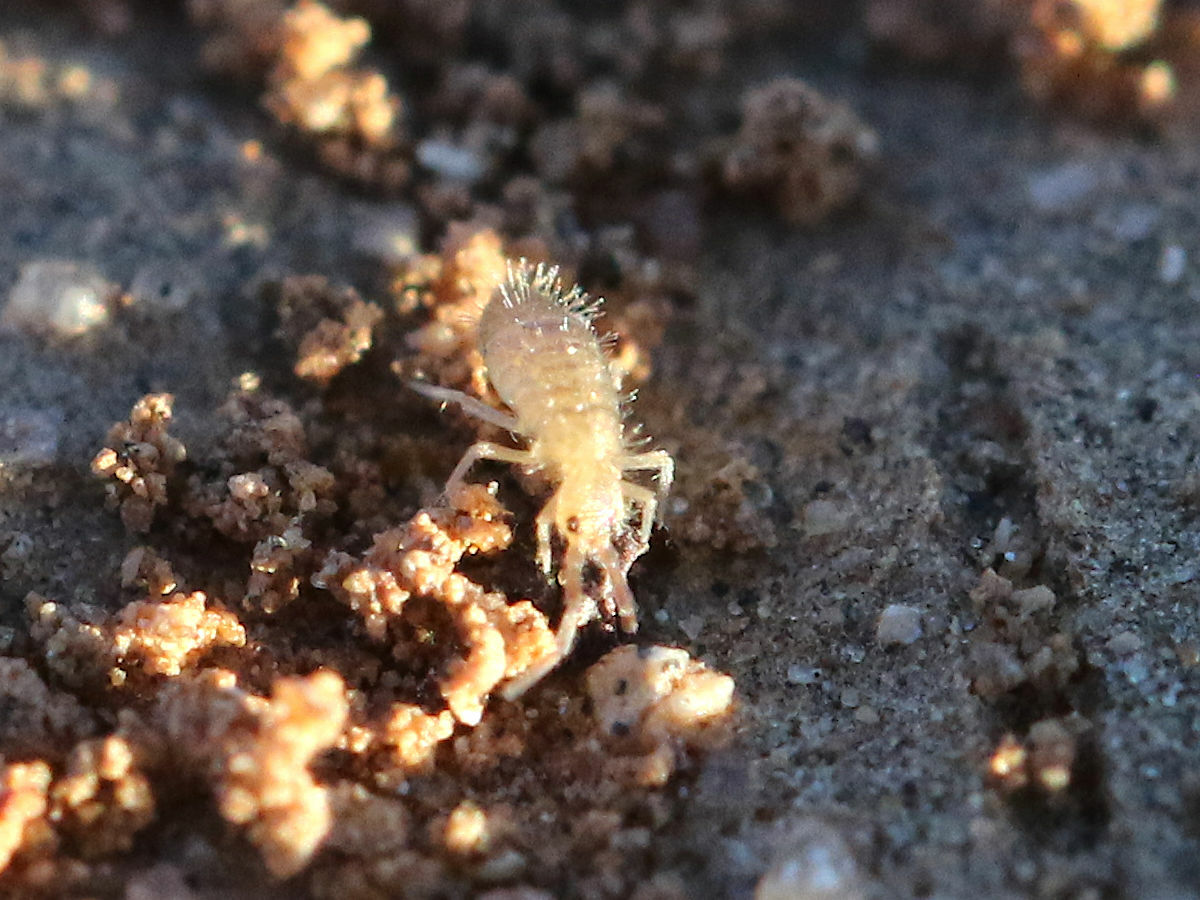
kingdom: Animalia
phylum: Arthropoda
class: Collembola
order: Entomobryomorpha
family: Entomobryidae
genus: Entomobrya
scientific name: Entomobrya unostrigata
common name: Springtail
